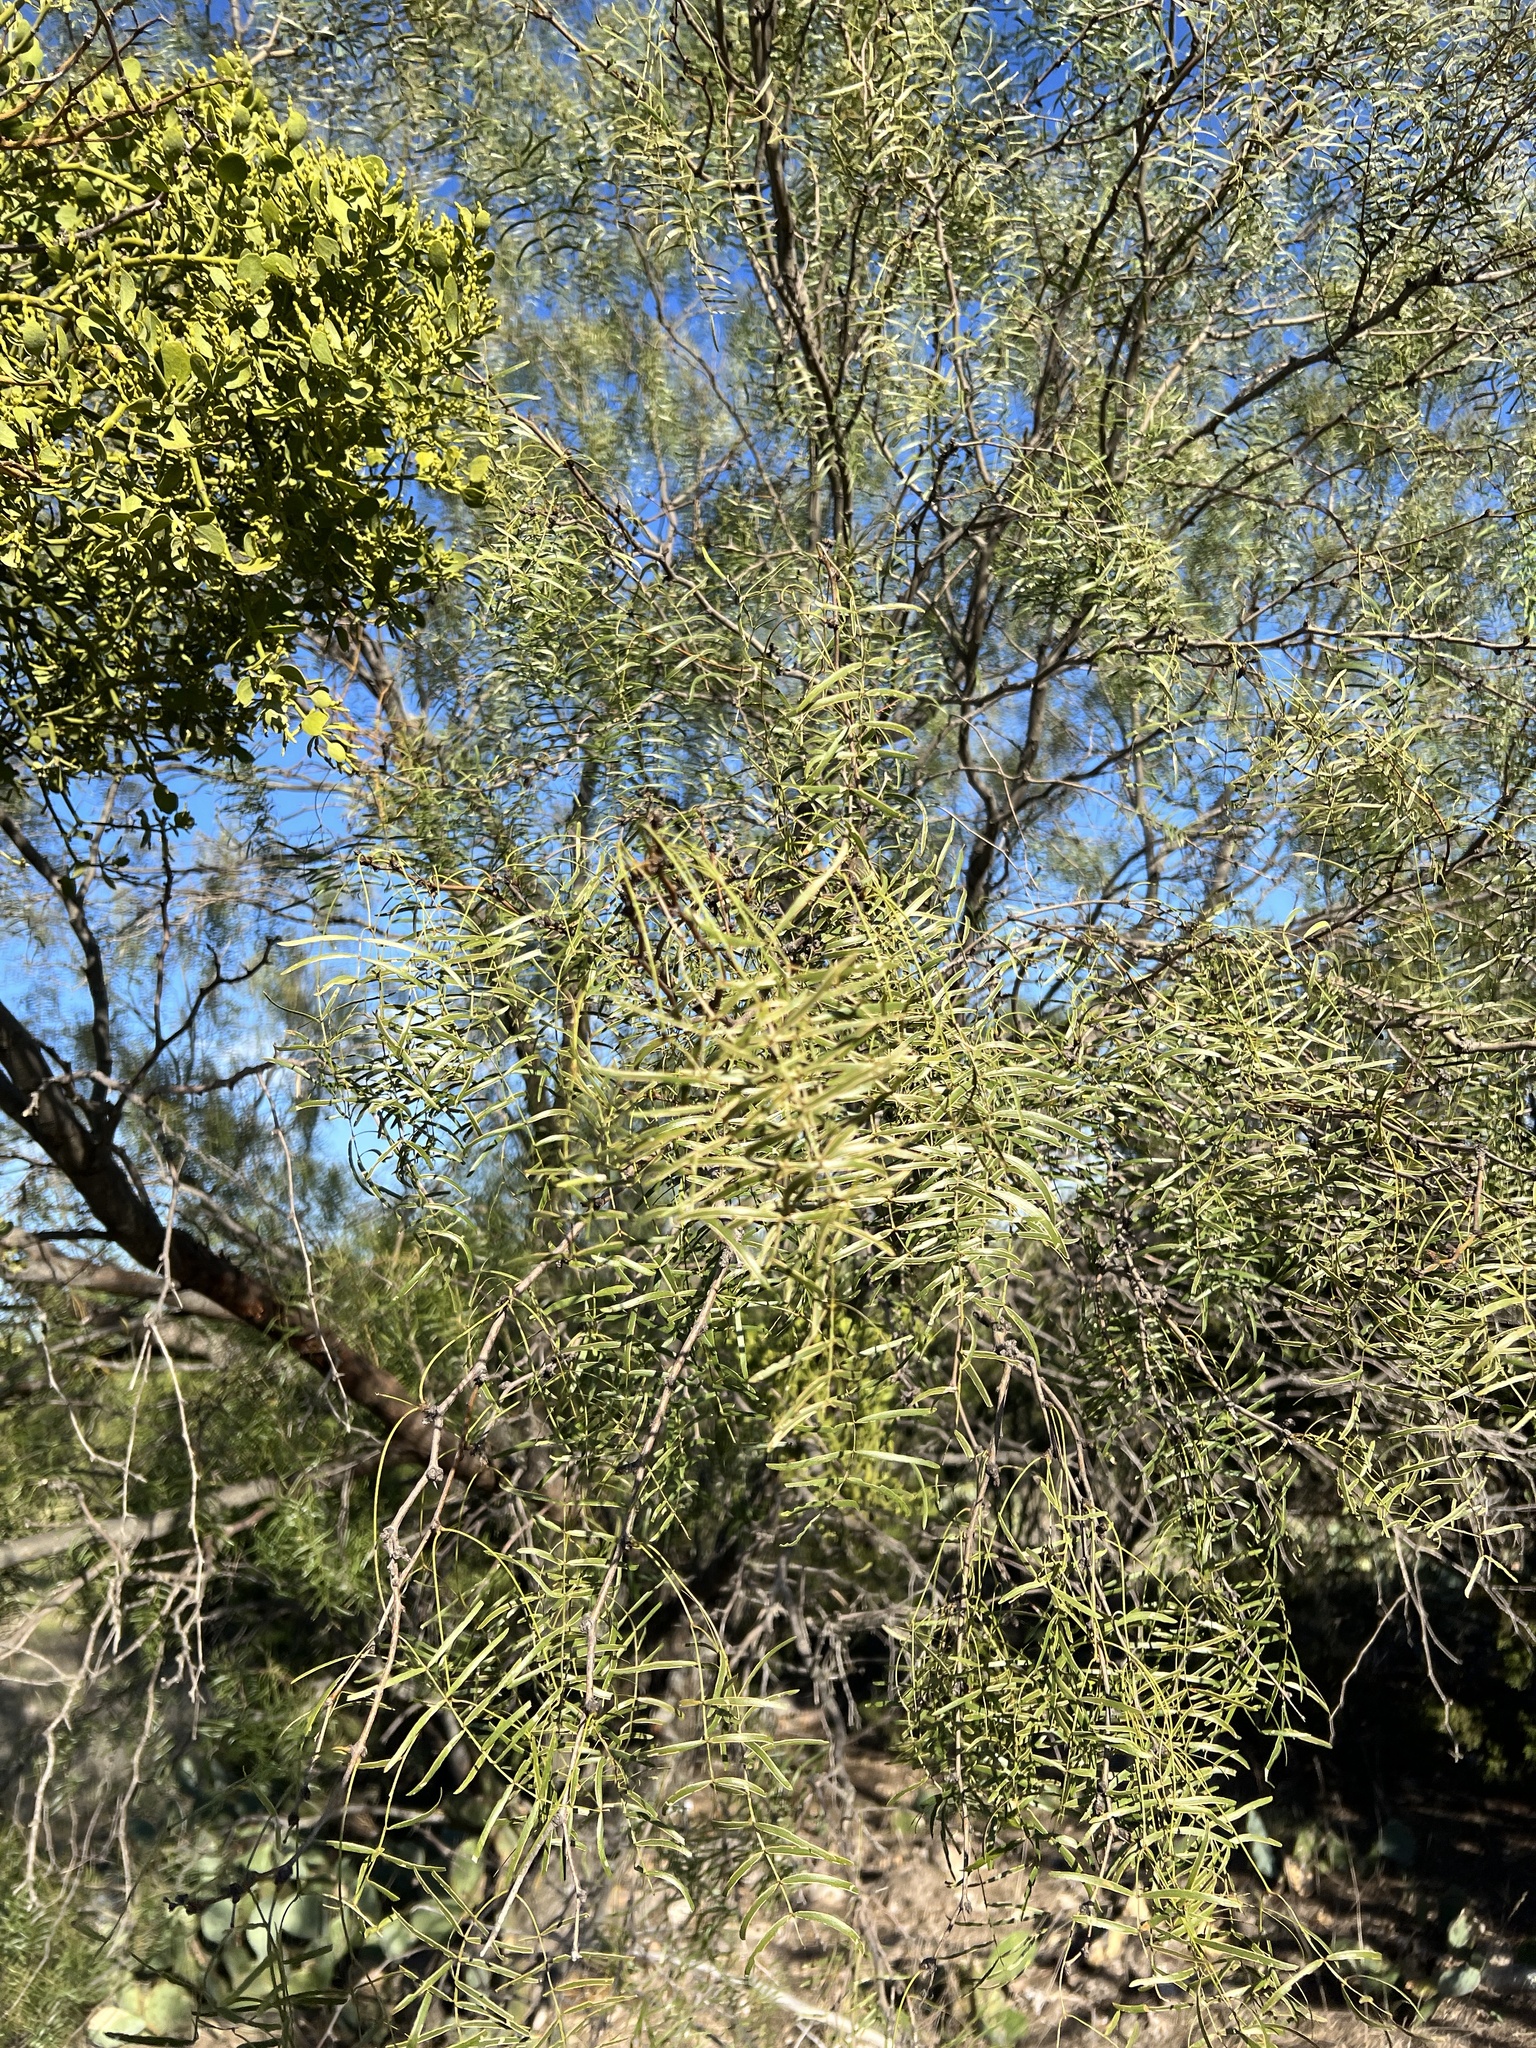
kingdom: Plantae
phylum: Tracheophyta
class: Magnoliopsida
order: Fabales
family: Fabaceae
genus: Prosopis
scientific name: Prosopis glandulosa
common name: Honey mesquite
